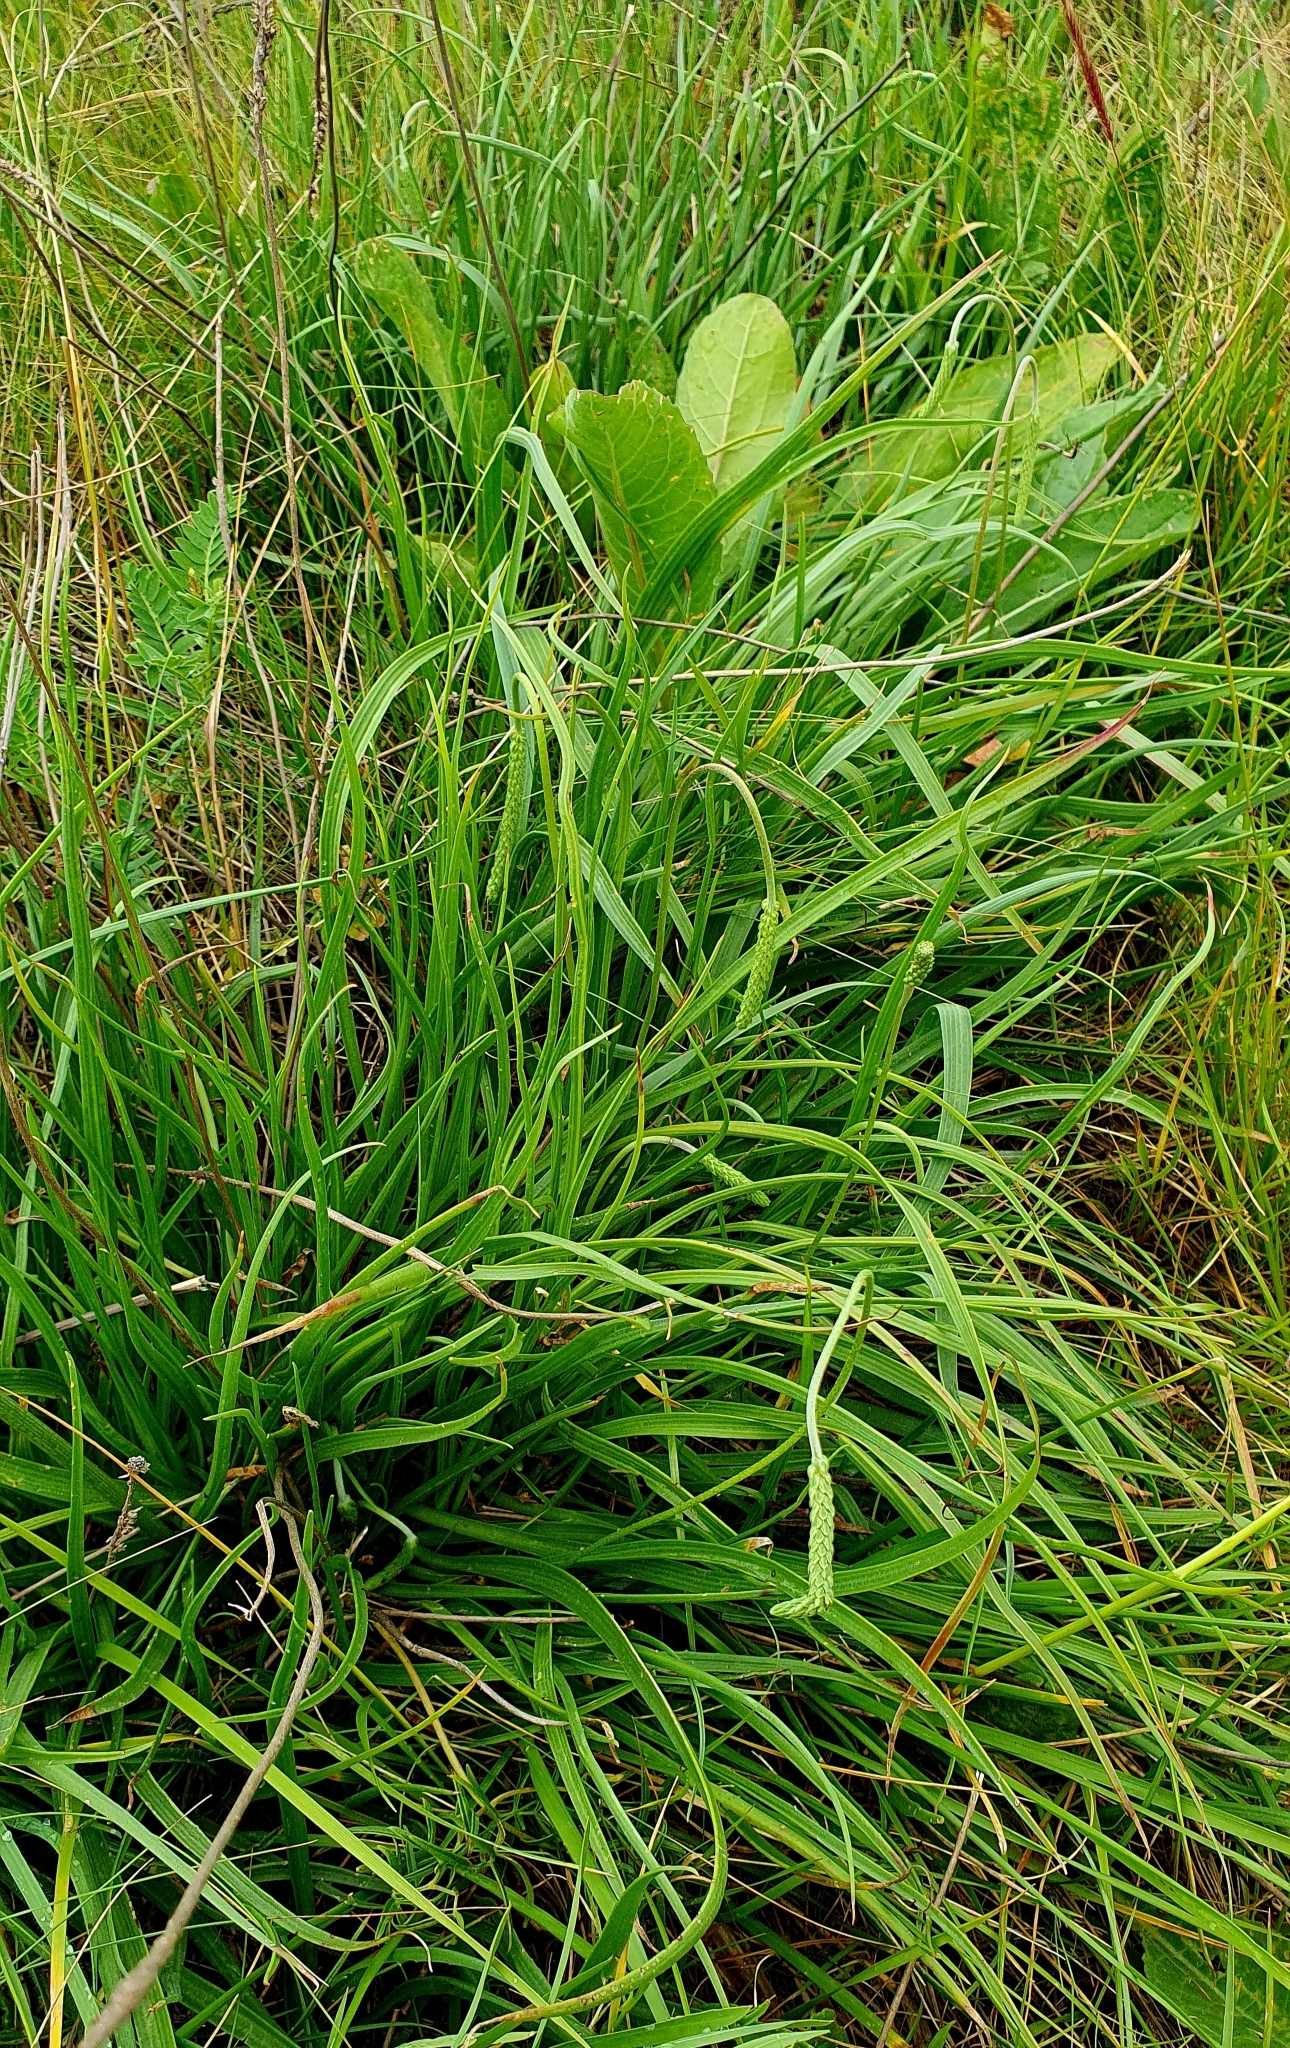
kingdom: Plantae
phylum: Tracheophyta
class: Magnoliopsida
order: Lamiales
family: Plantaginaceae
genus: Plantago
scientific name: Plantago salsa
